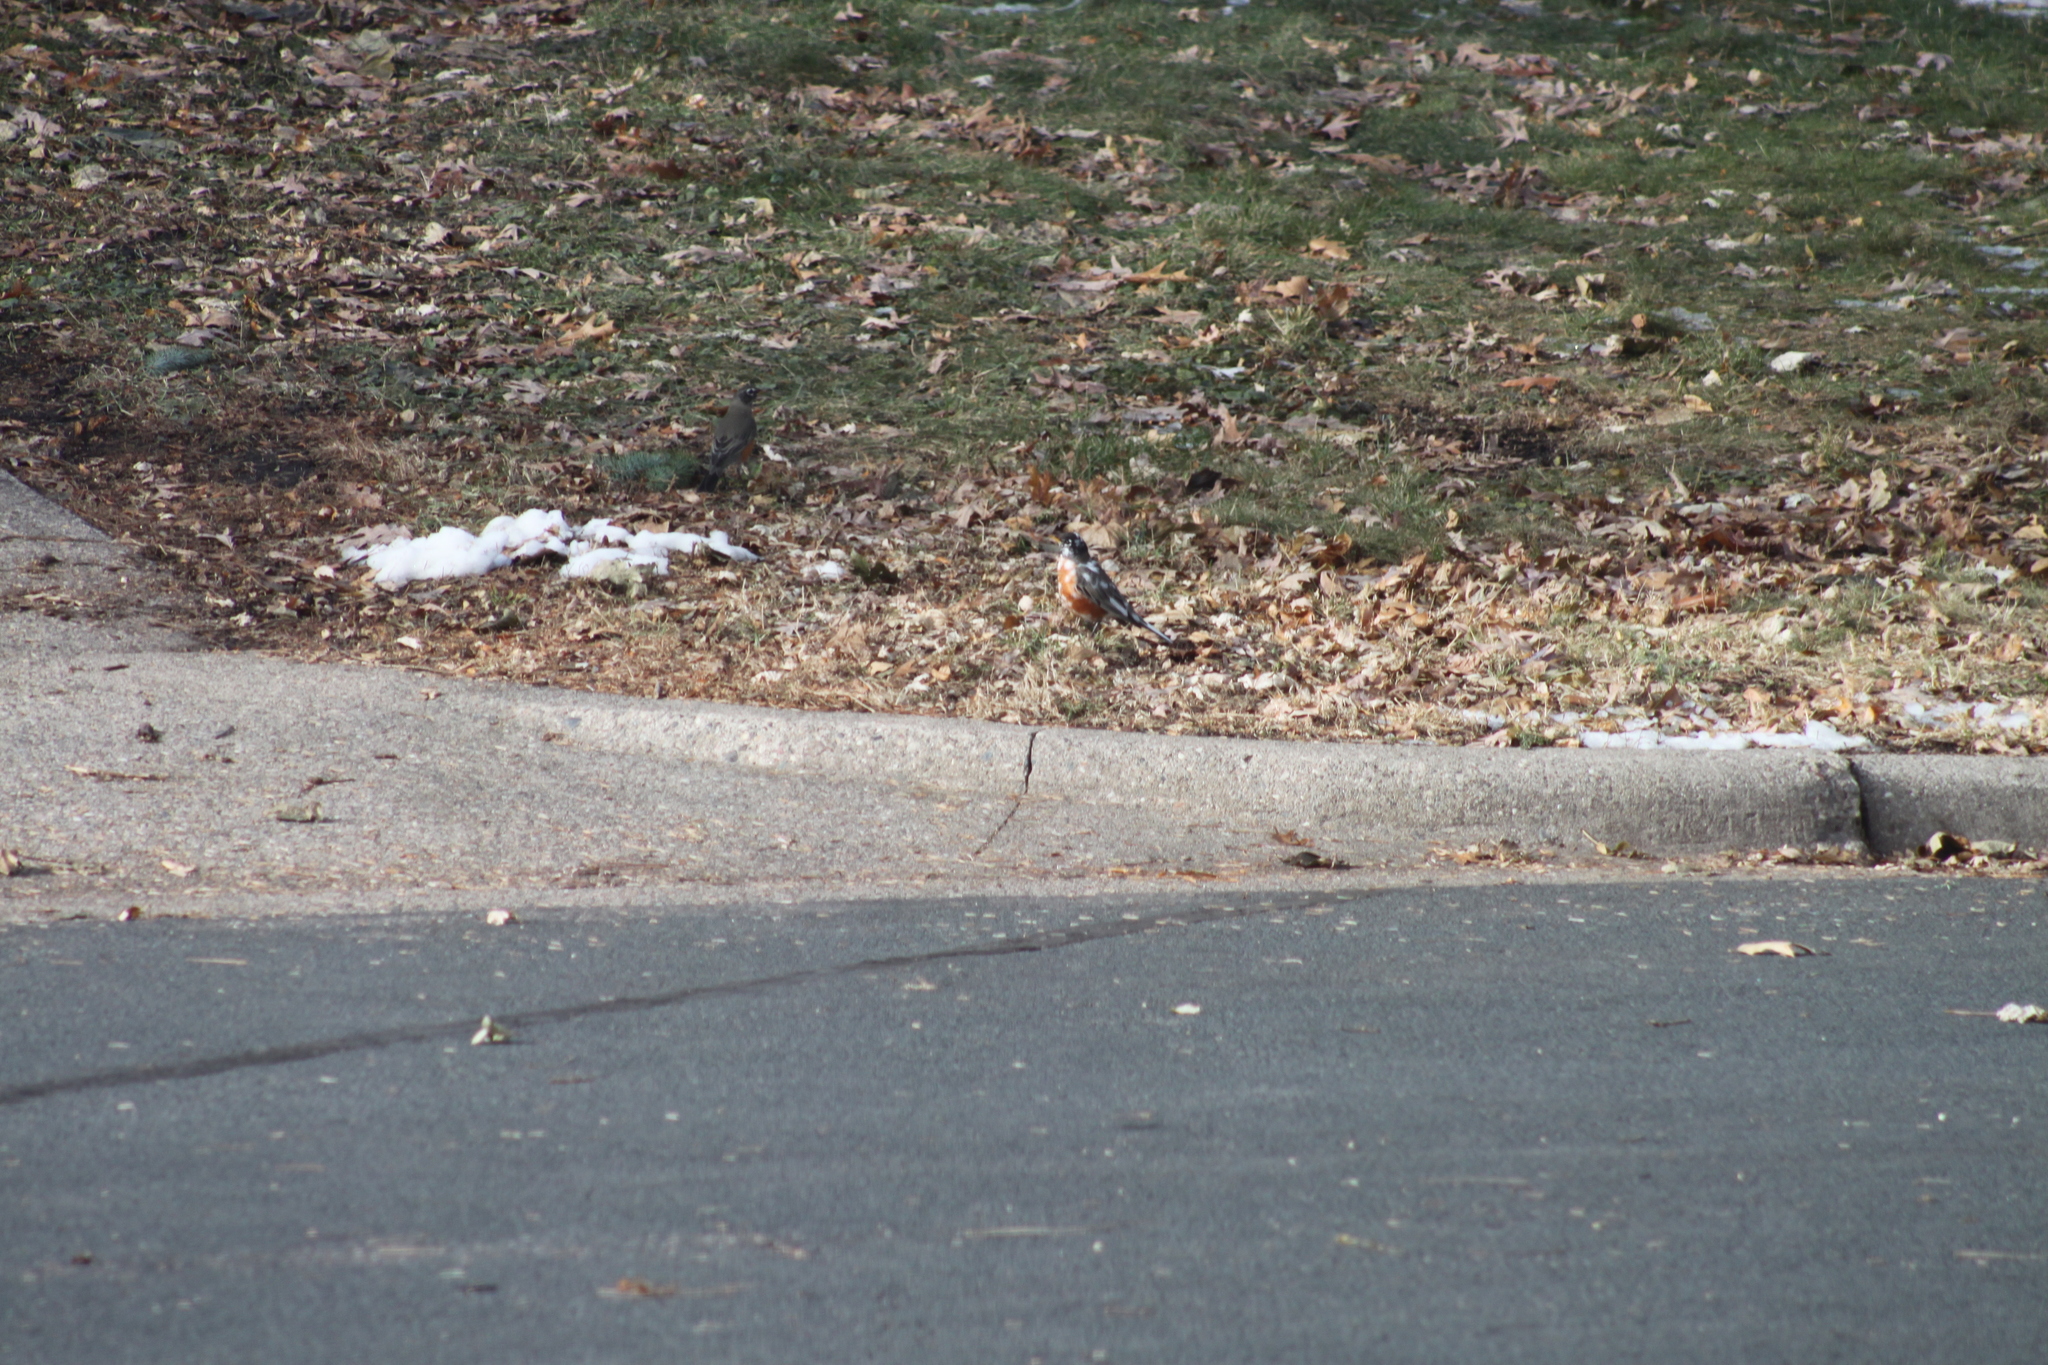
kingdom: Animalia
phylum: Chordata
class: Aves
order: Passeriformes
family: Turdidae
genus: Turdus
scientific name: Turdus migratorius
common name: American robin
